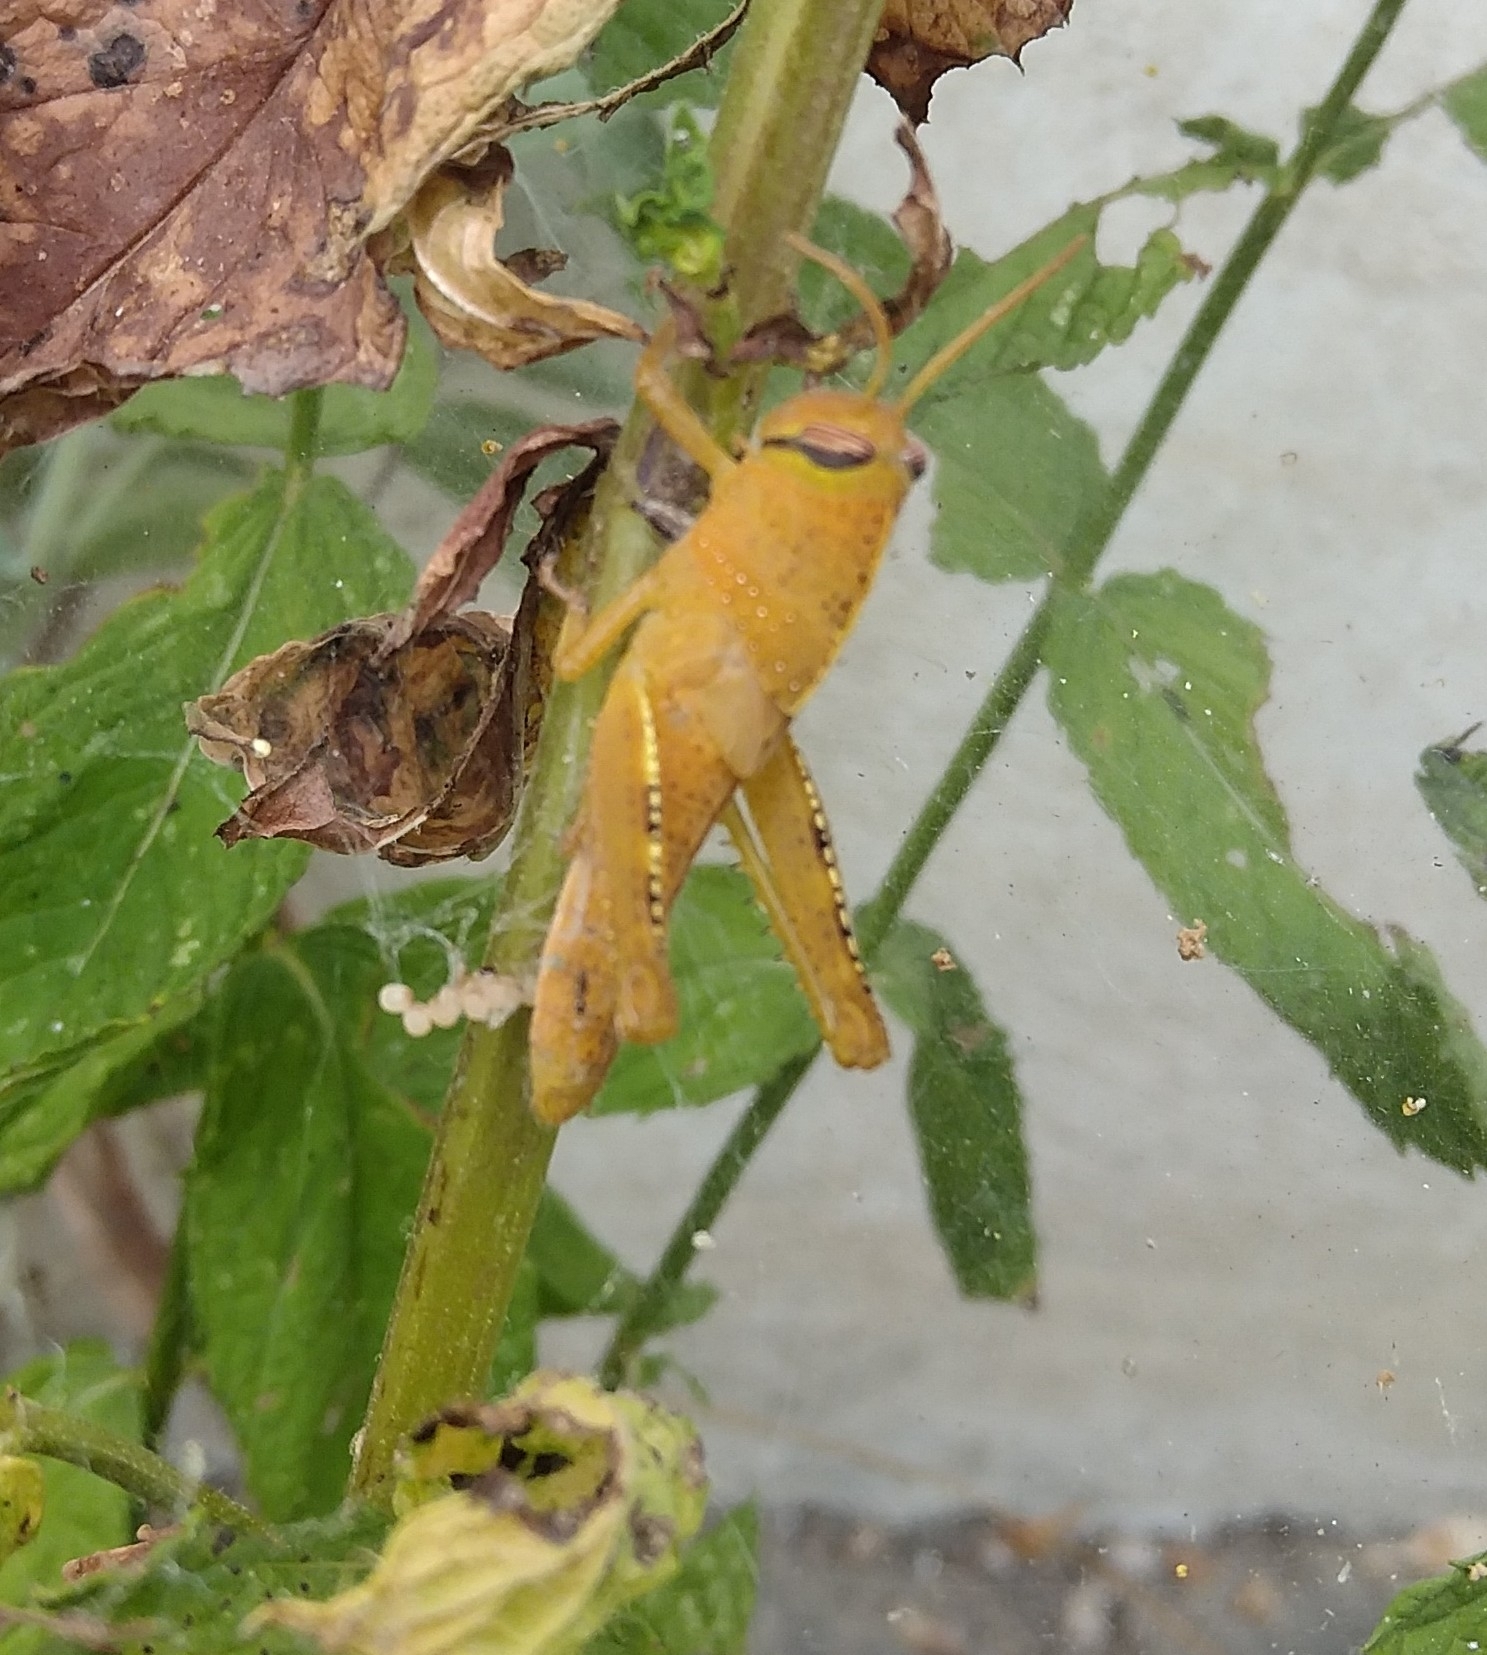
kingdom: Animalia
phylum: Arthropoda
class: Insecta
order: Orthoptera
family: Acrididae
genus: Anacridium
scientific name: Anacridium aegyptium
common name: Egyptian grasshopper
